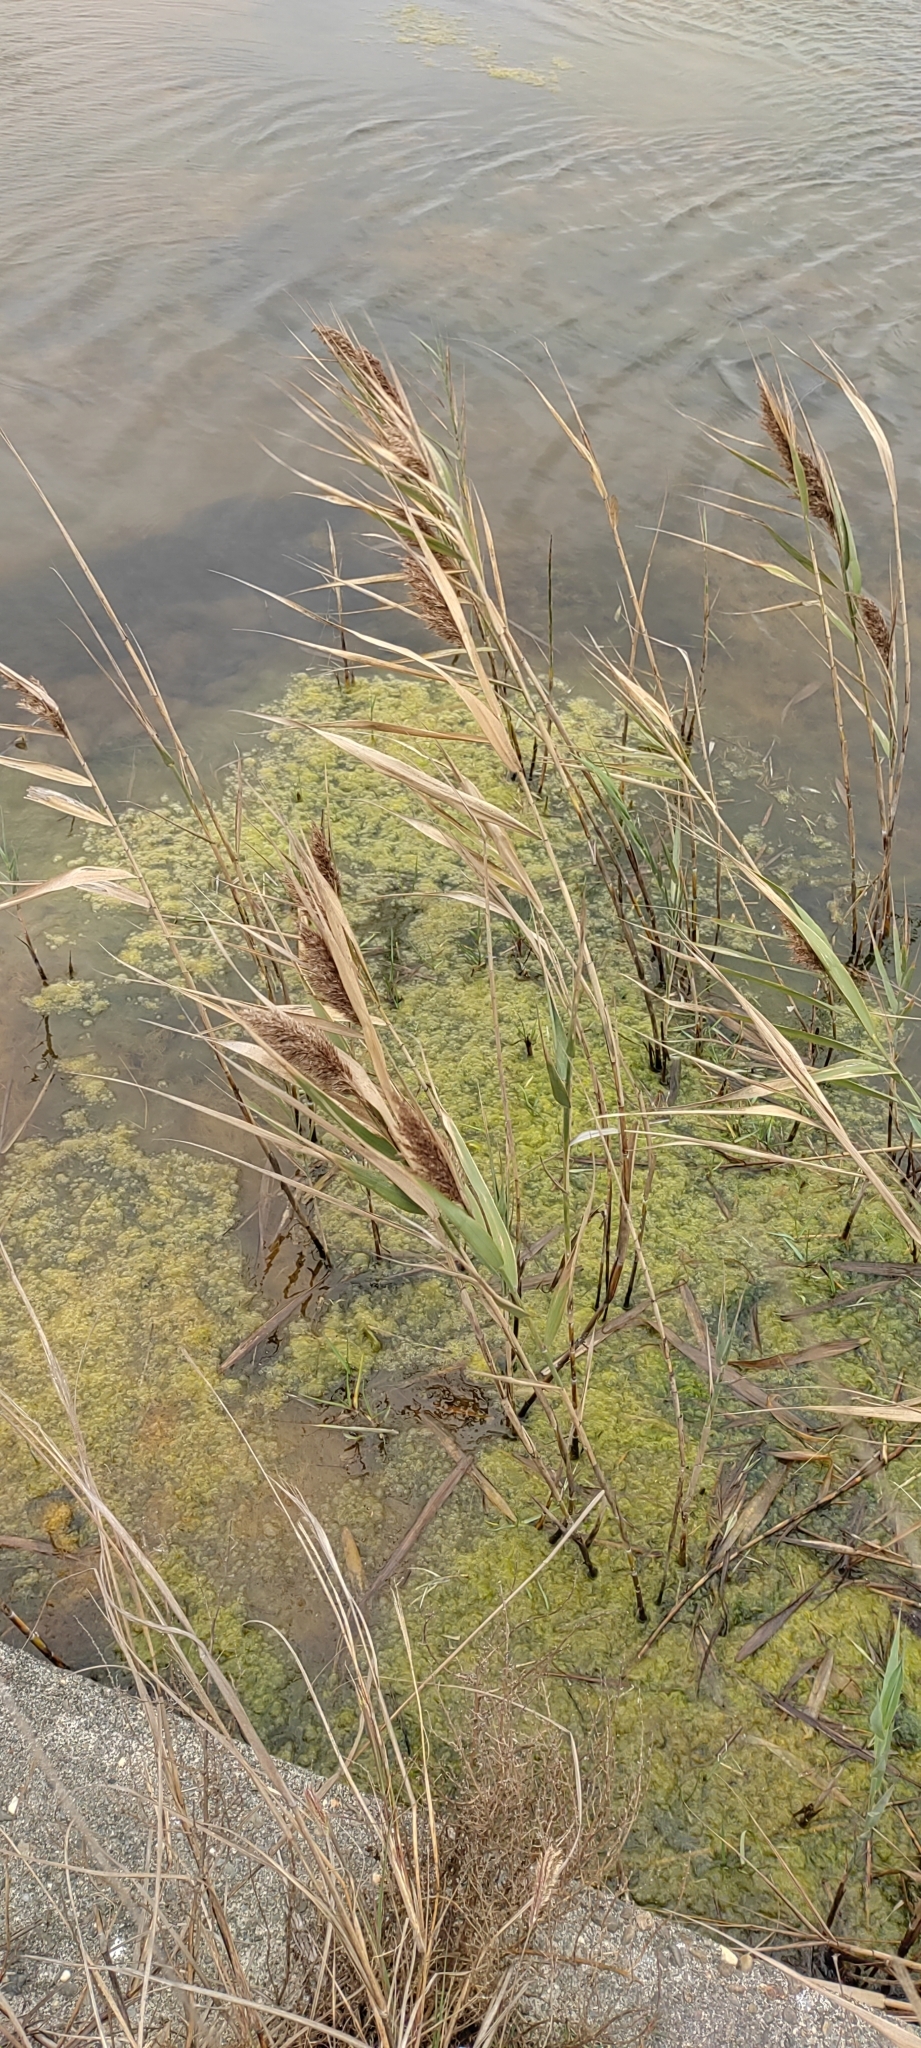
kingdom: Plantae
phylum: Tracheophyta
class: Liliopsida
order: Poales
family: Poaceae
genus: Phragmites
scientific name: Phragmites australis
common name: Common reed
